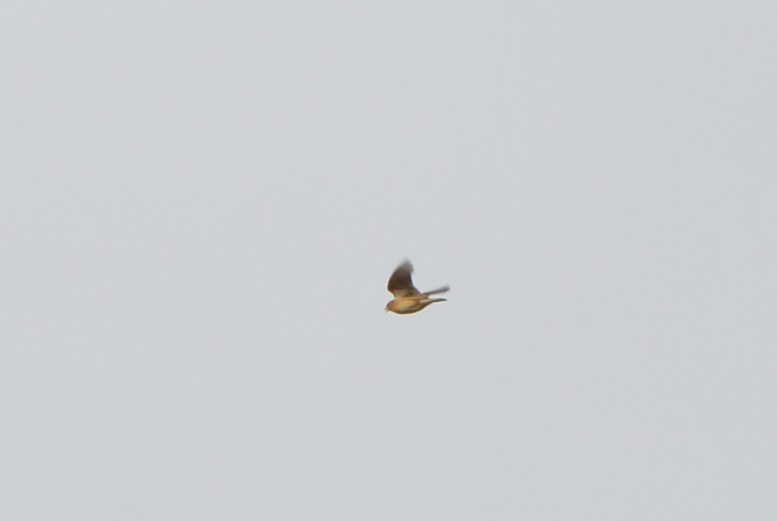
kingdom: Animalia
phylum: Chordata
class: Aves
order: Passeriformes
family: Alaudidae
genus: Alauda
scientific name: Alauda arvensis
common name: Eurasian skylark
